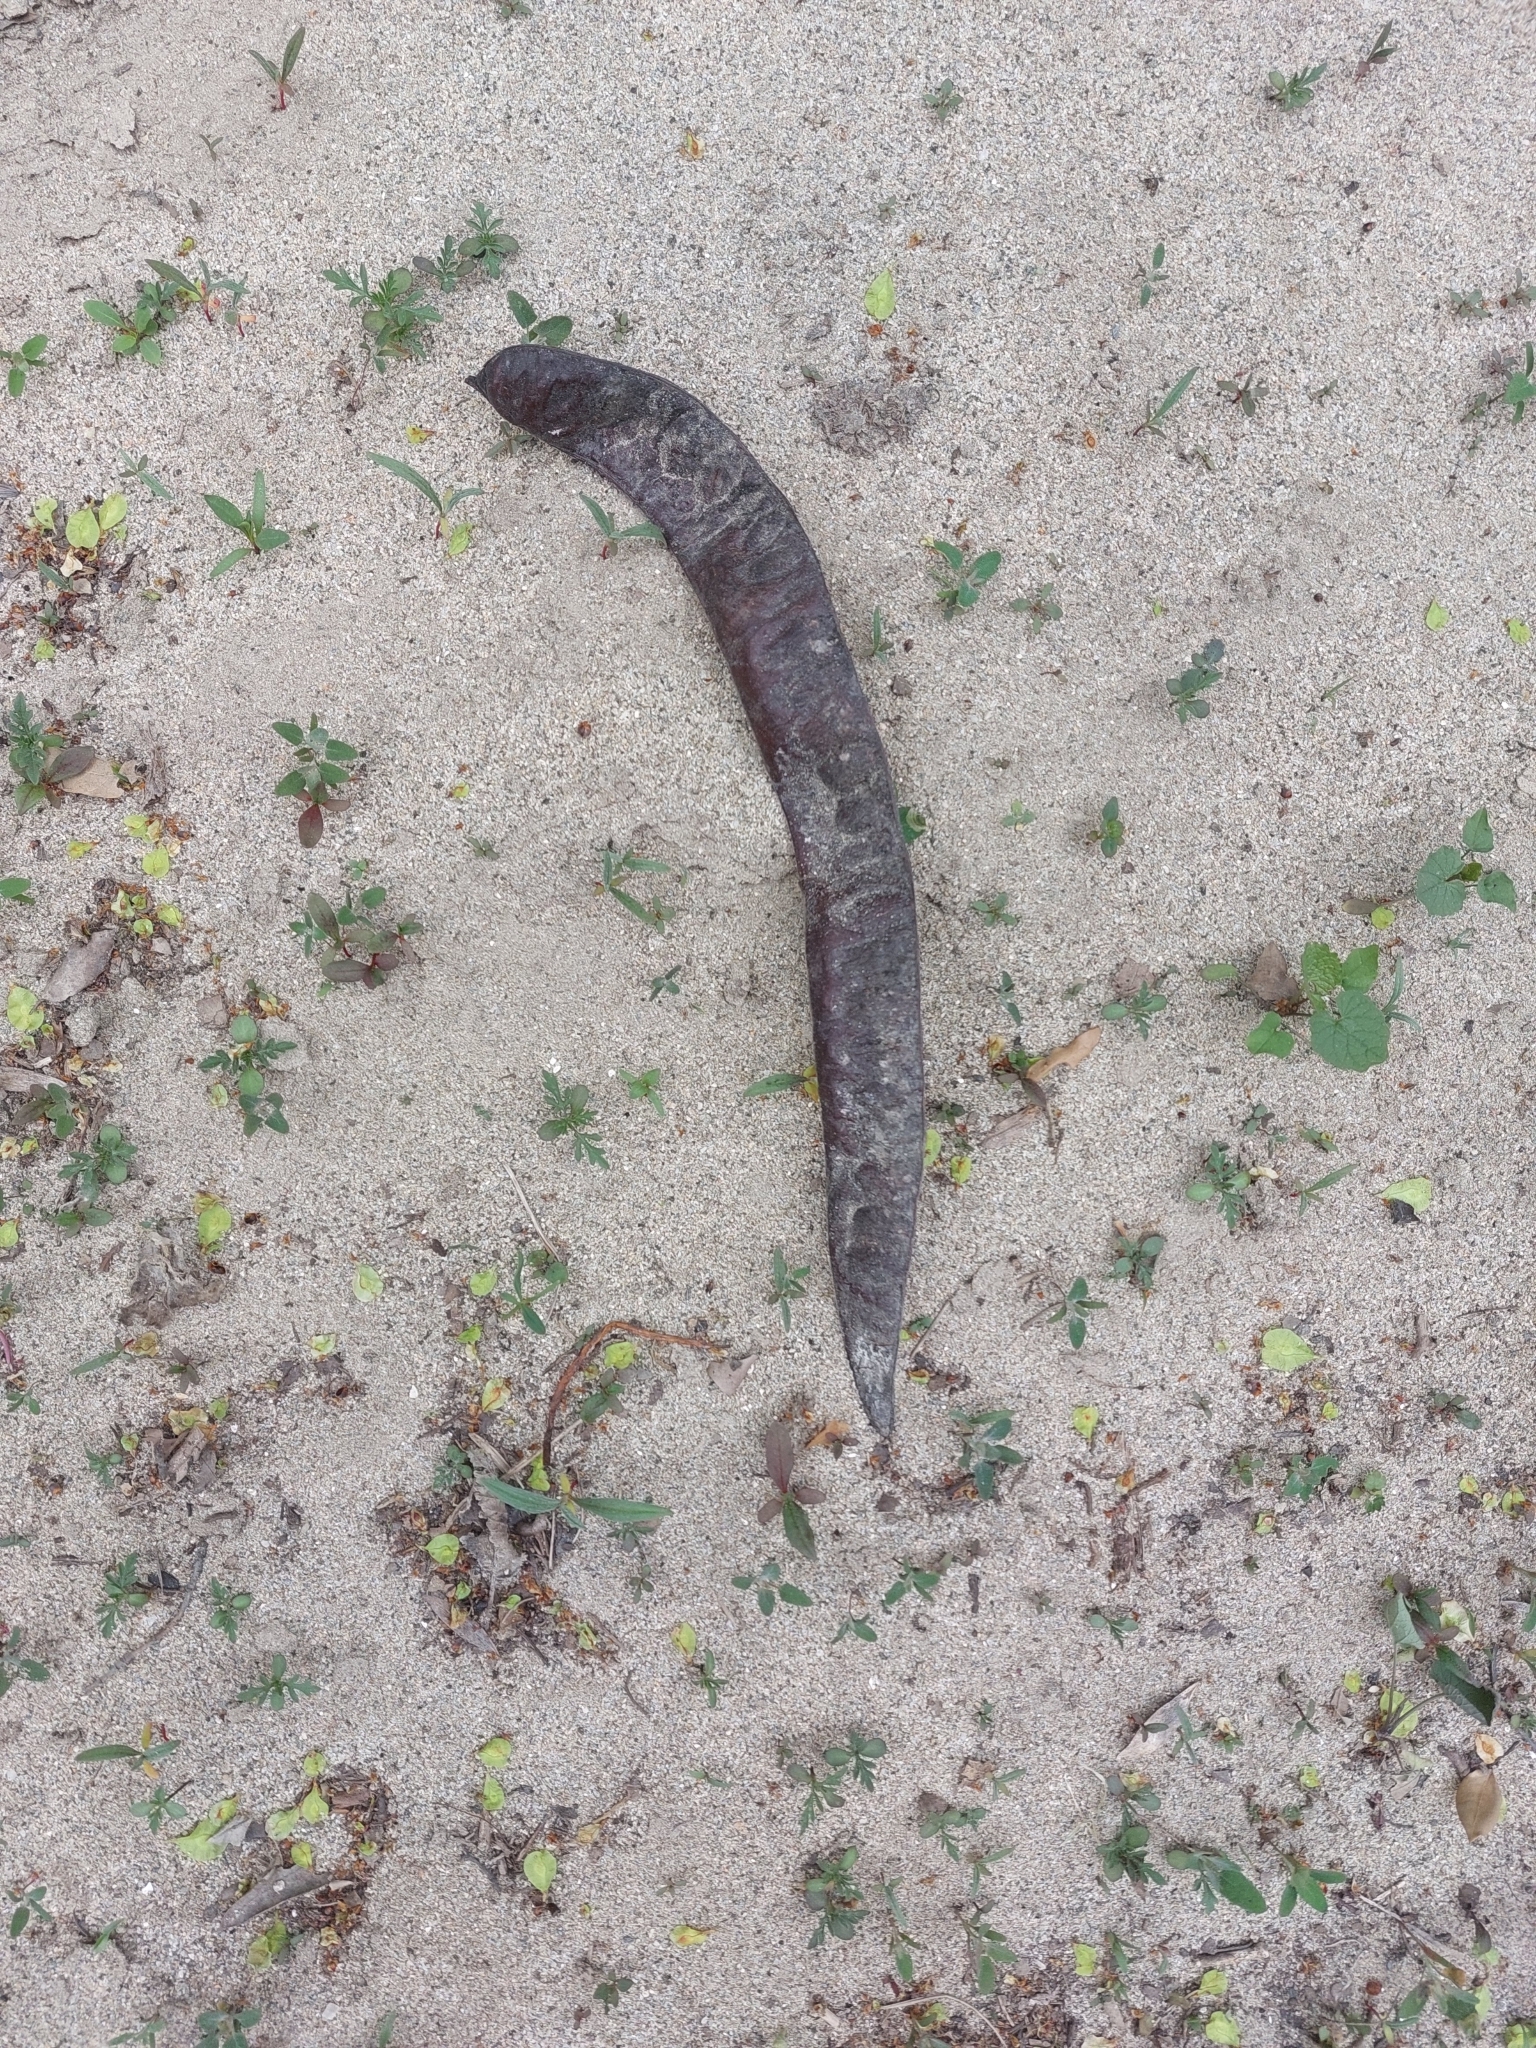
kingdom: Plantae
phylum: Tracheophyta
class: Magnoliopsida
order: Fabales
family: Fabaceae
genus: Gleditsia
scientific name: Gleditsia triacanthos
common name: Common honeylocust
